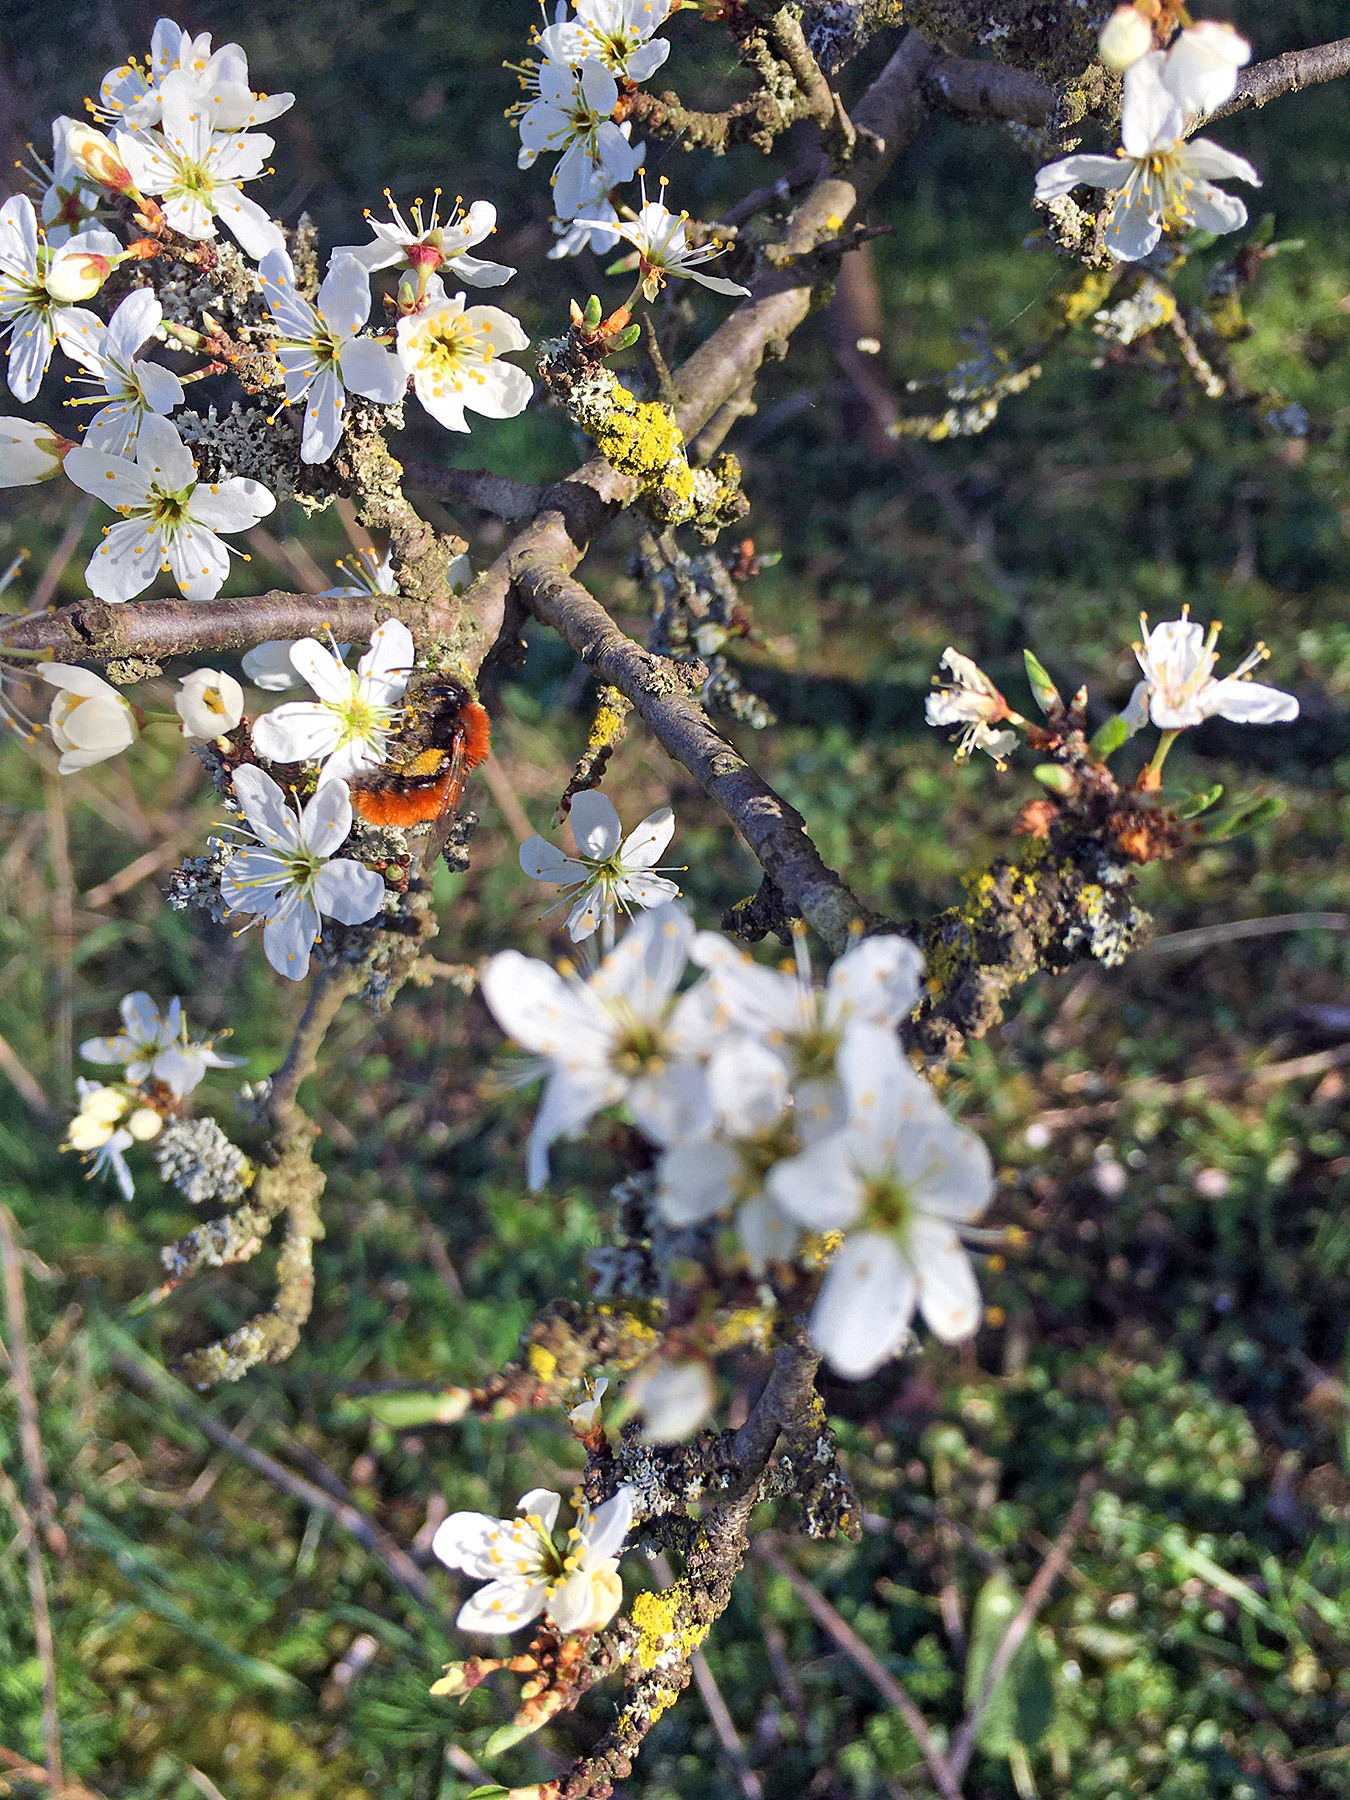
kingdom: Plantae
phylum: Tracheophyta
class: Magnoliopsida
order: Rosales
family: Rosaceae
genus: Prunus
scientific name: Prunus spinosa
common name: Blackthorn
